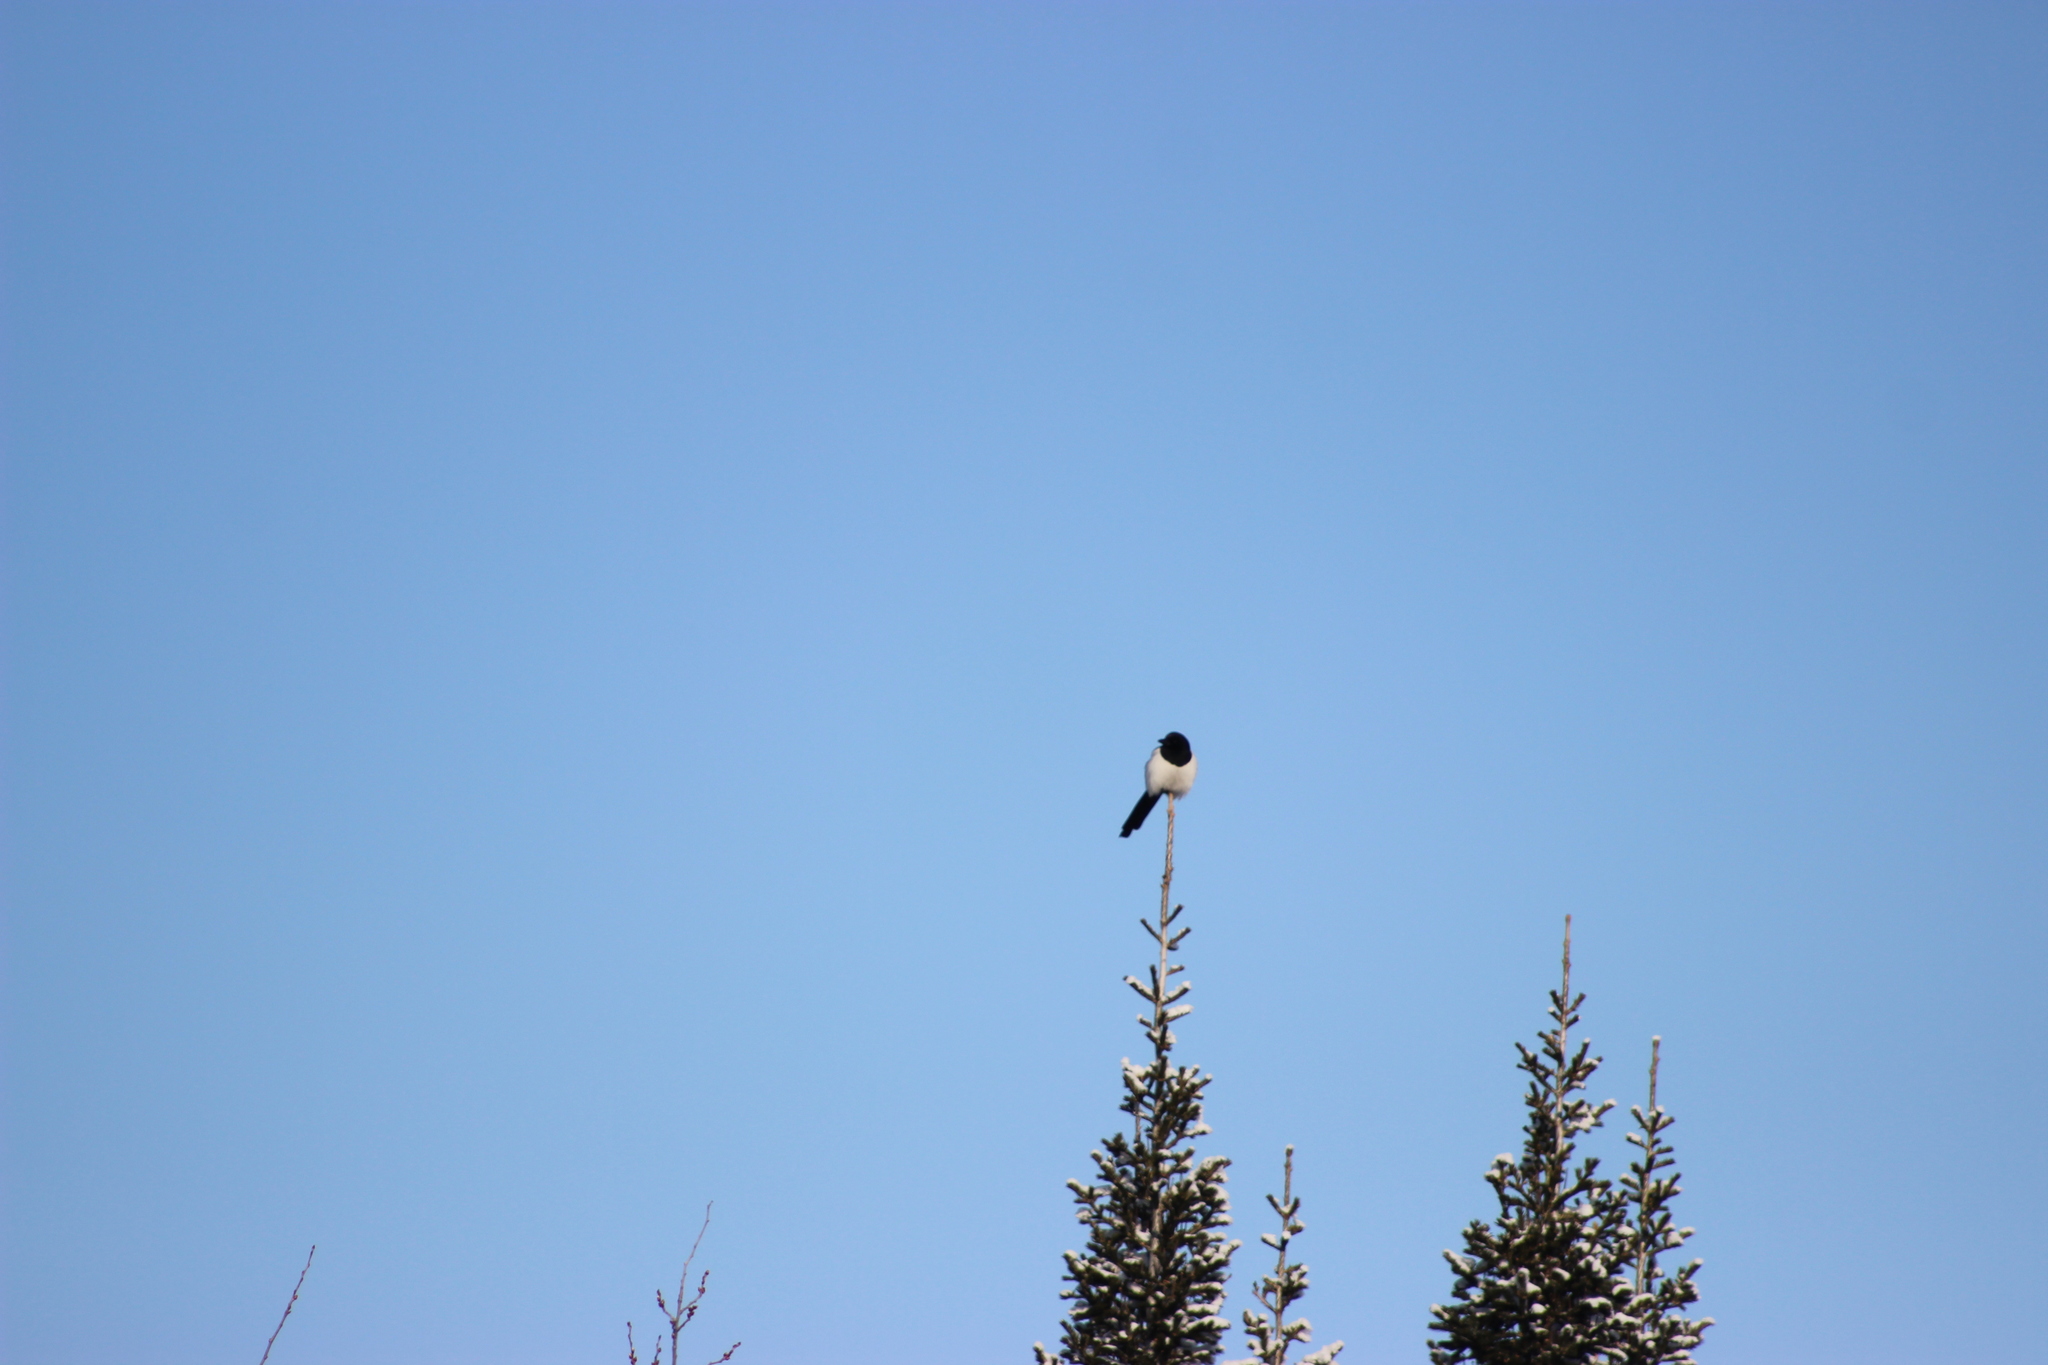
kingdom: Animalia
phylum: Chordata
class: Aves
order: Passeriformes
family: Corvidae
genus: Pica
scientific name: Pica pica
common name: Eurasian magpie
